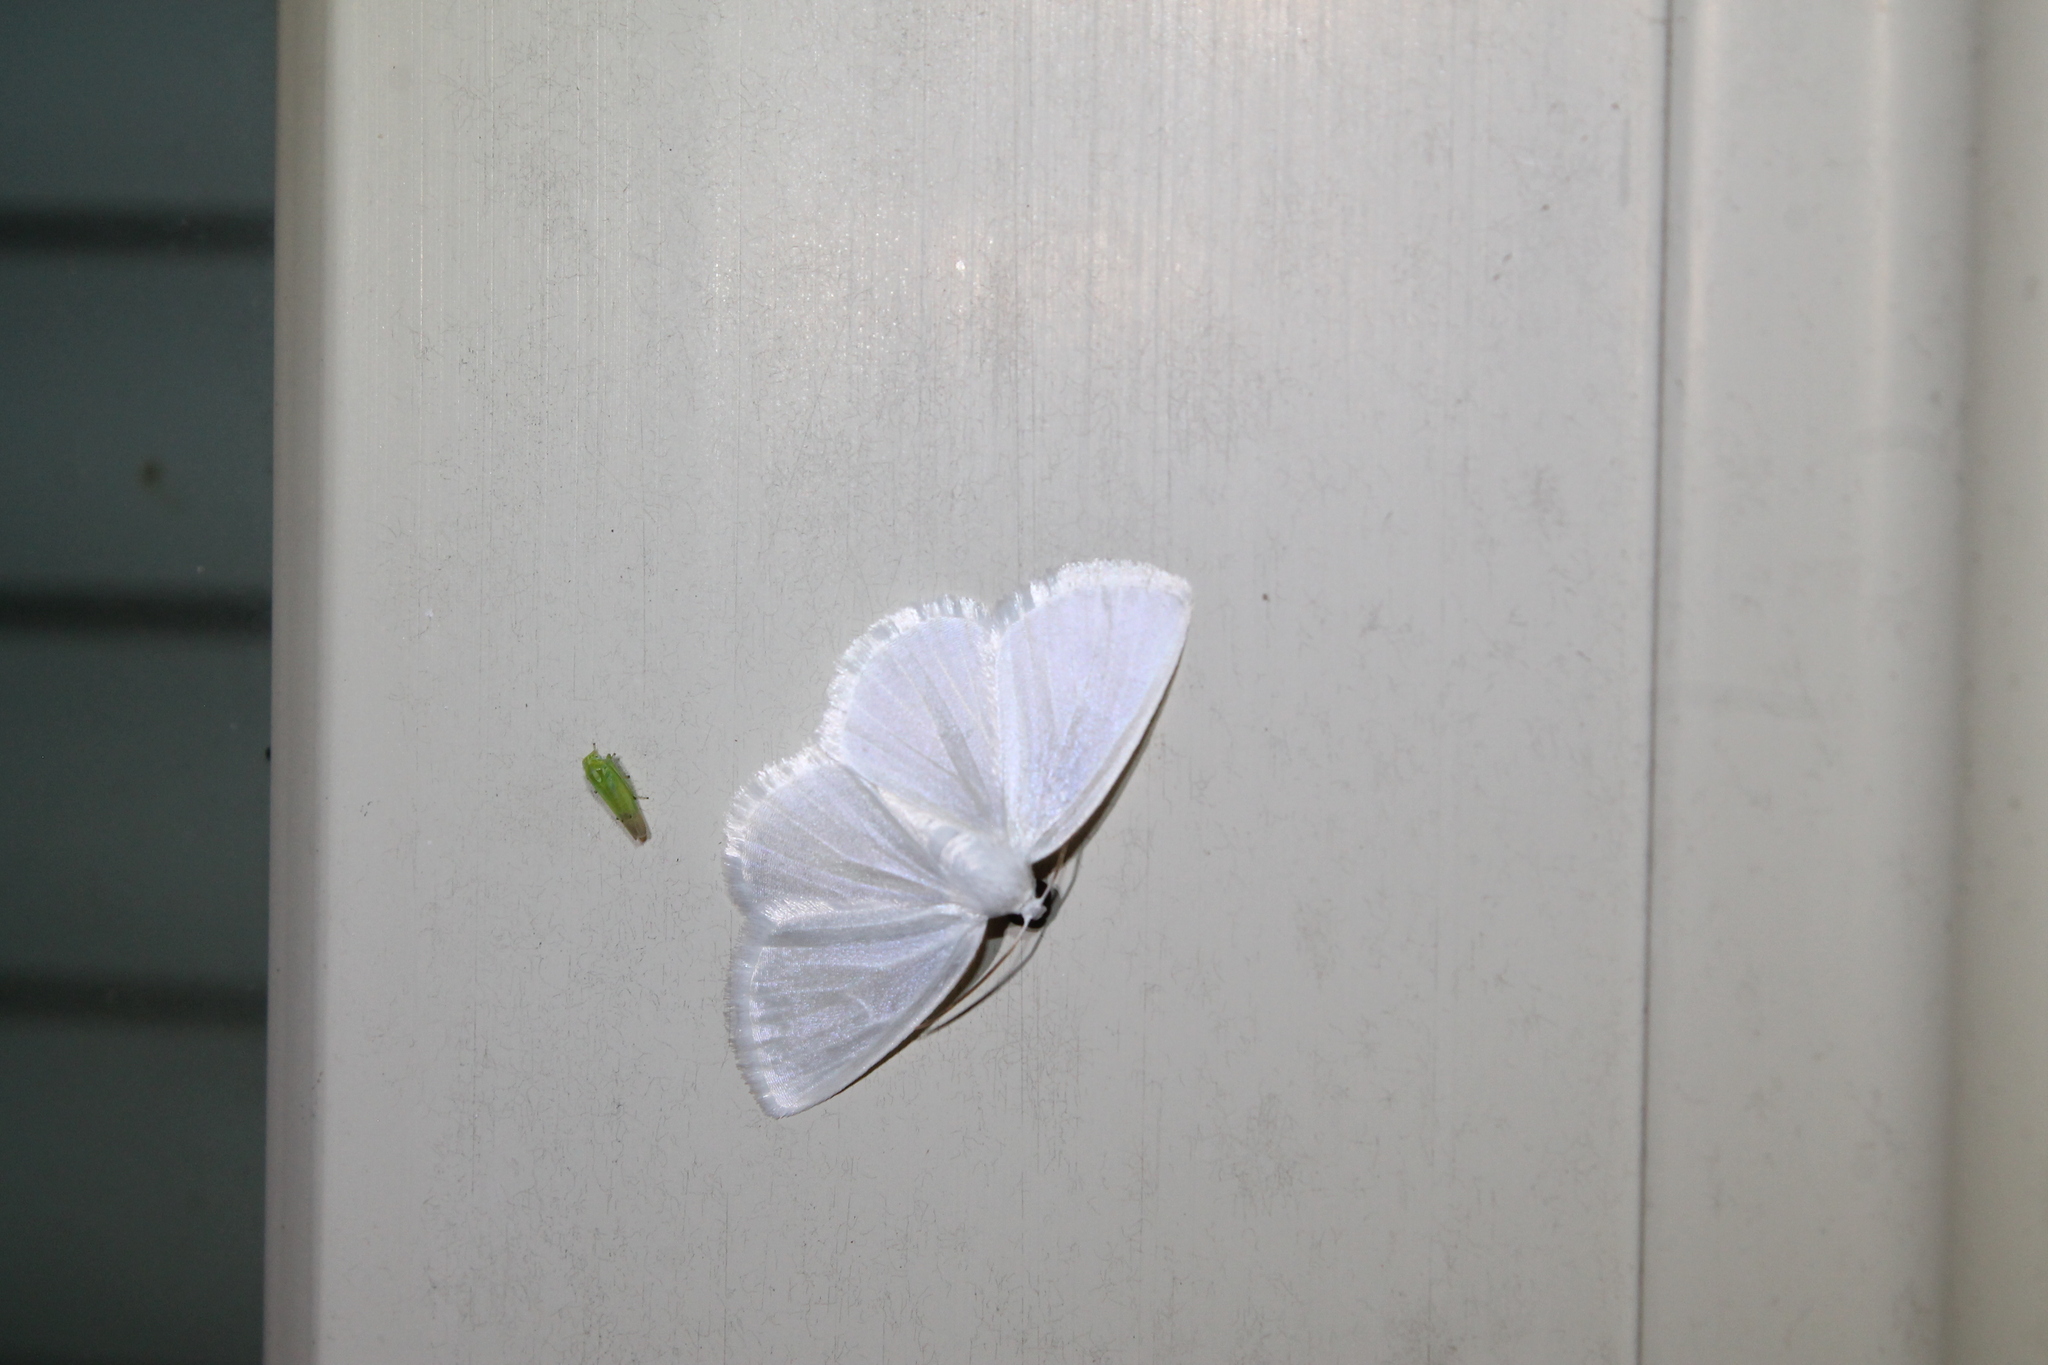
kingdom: Animalia
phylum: Arthropoda
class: Insecta
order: Lepidoptera
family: Geometridae
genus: Lomographa
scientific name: Lomographa vestaliata
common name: White spring moth
